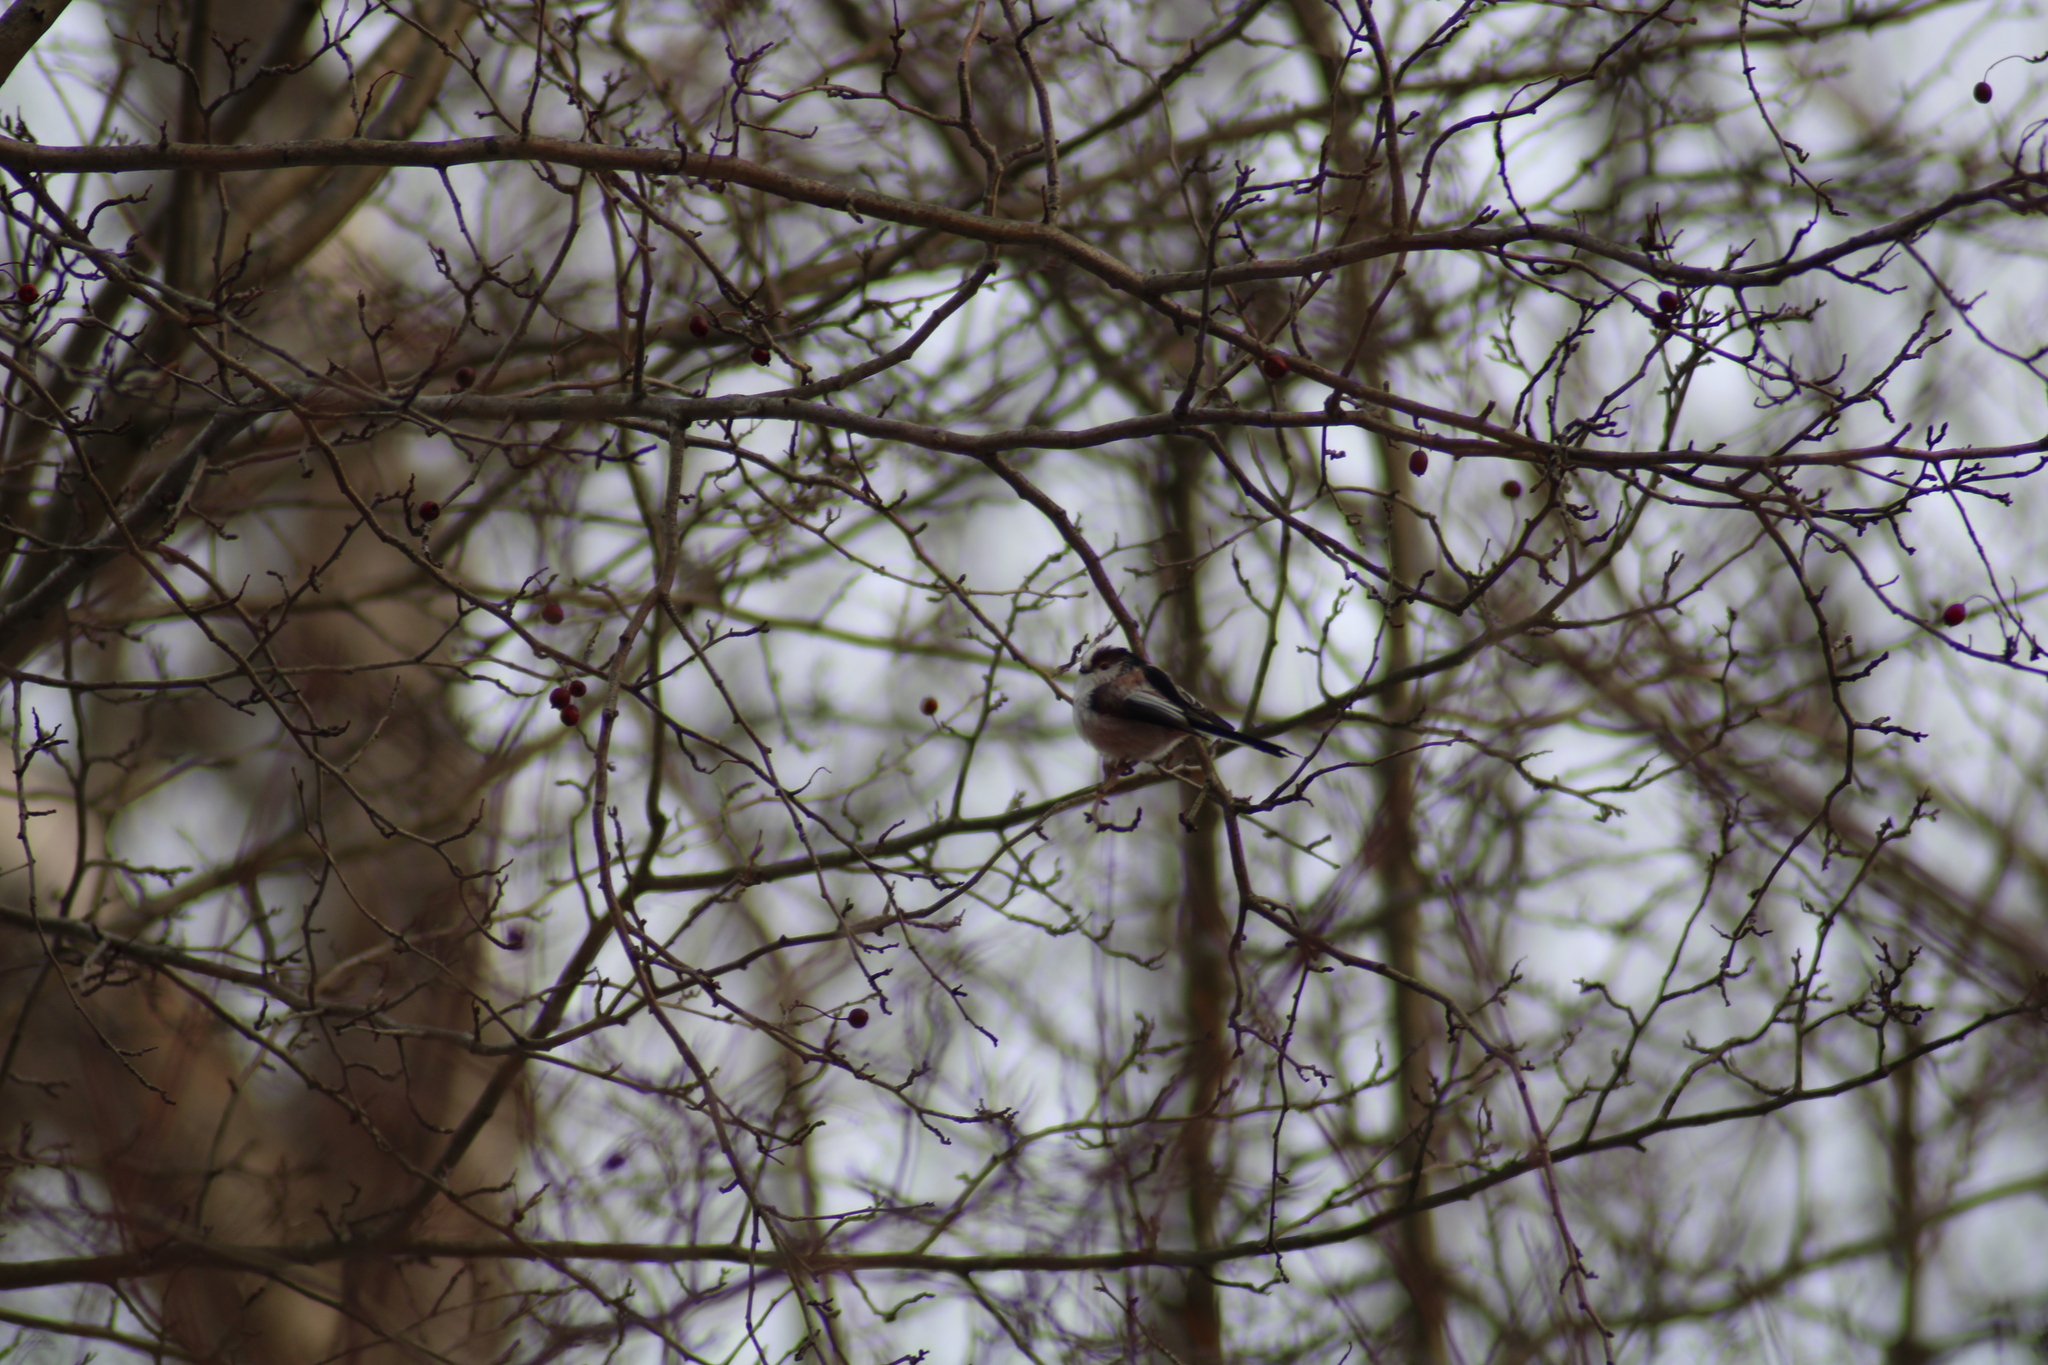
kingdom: Animalia
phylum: Chordata
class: Aves
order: Passeriformes
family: Aegithalidae
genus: Aegithalos
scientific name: Aegithalos caudatus
